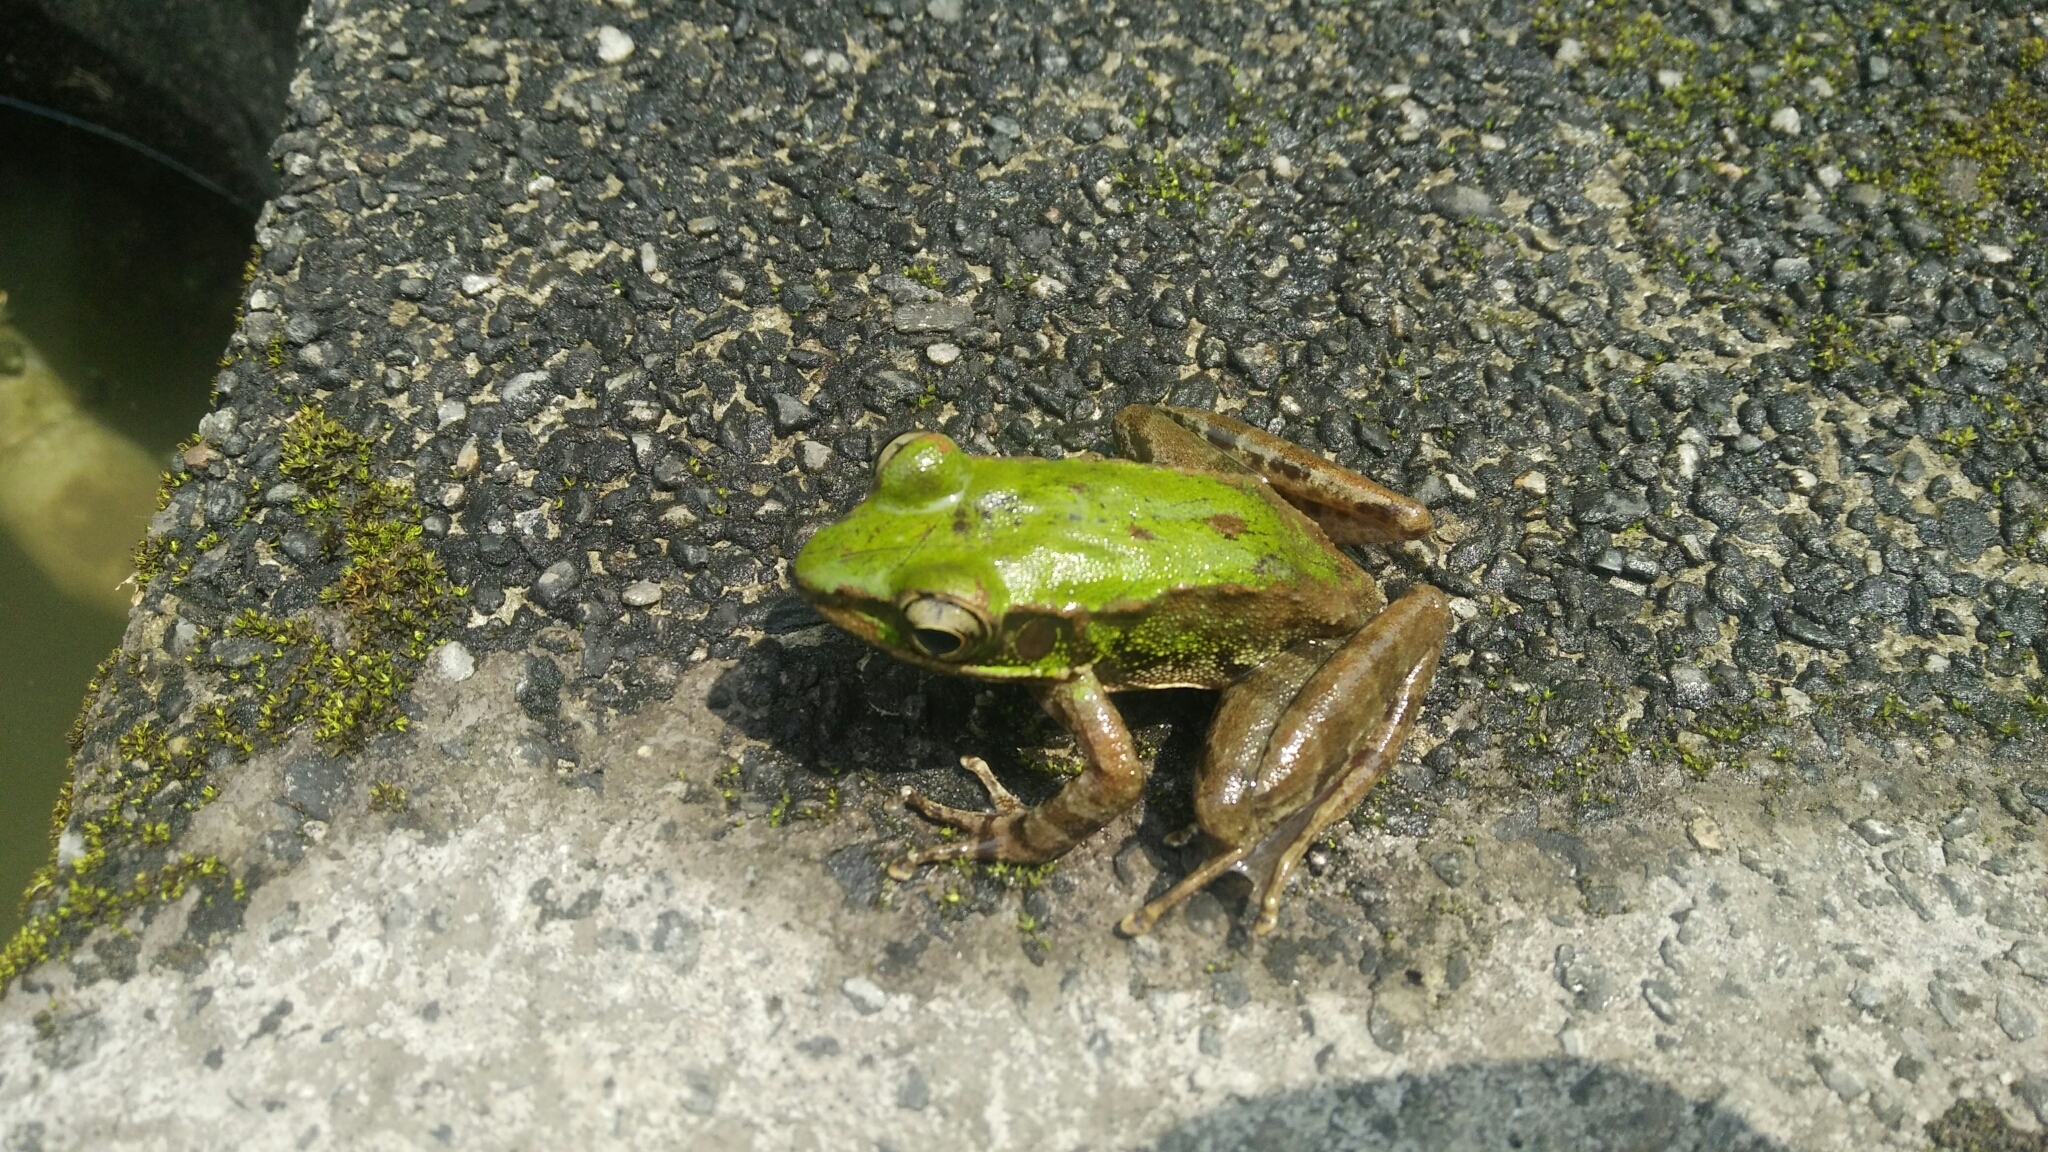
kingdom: Animalia
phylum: Chordata
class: Amphibia
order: Anura
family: Ranidae
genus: Odorrana
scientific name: Odorrana swinhoana
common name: Bangkimtsing frog
